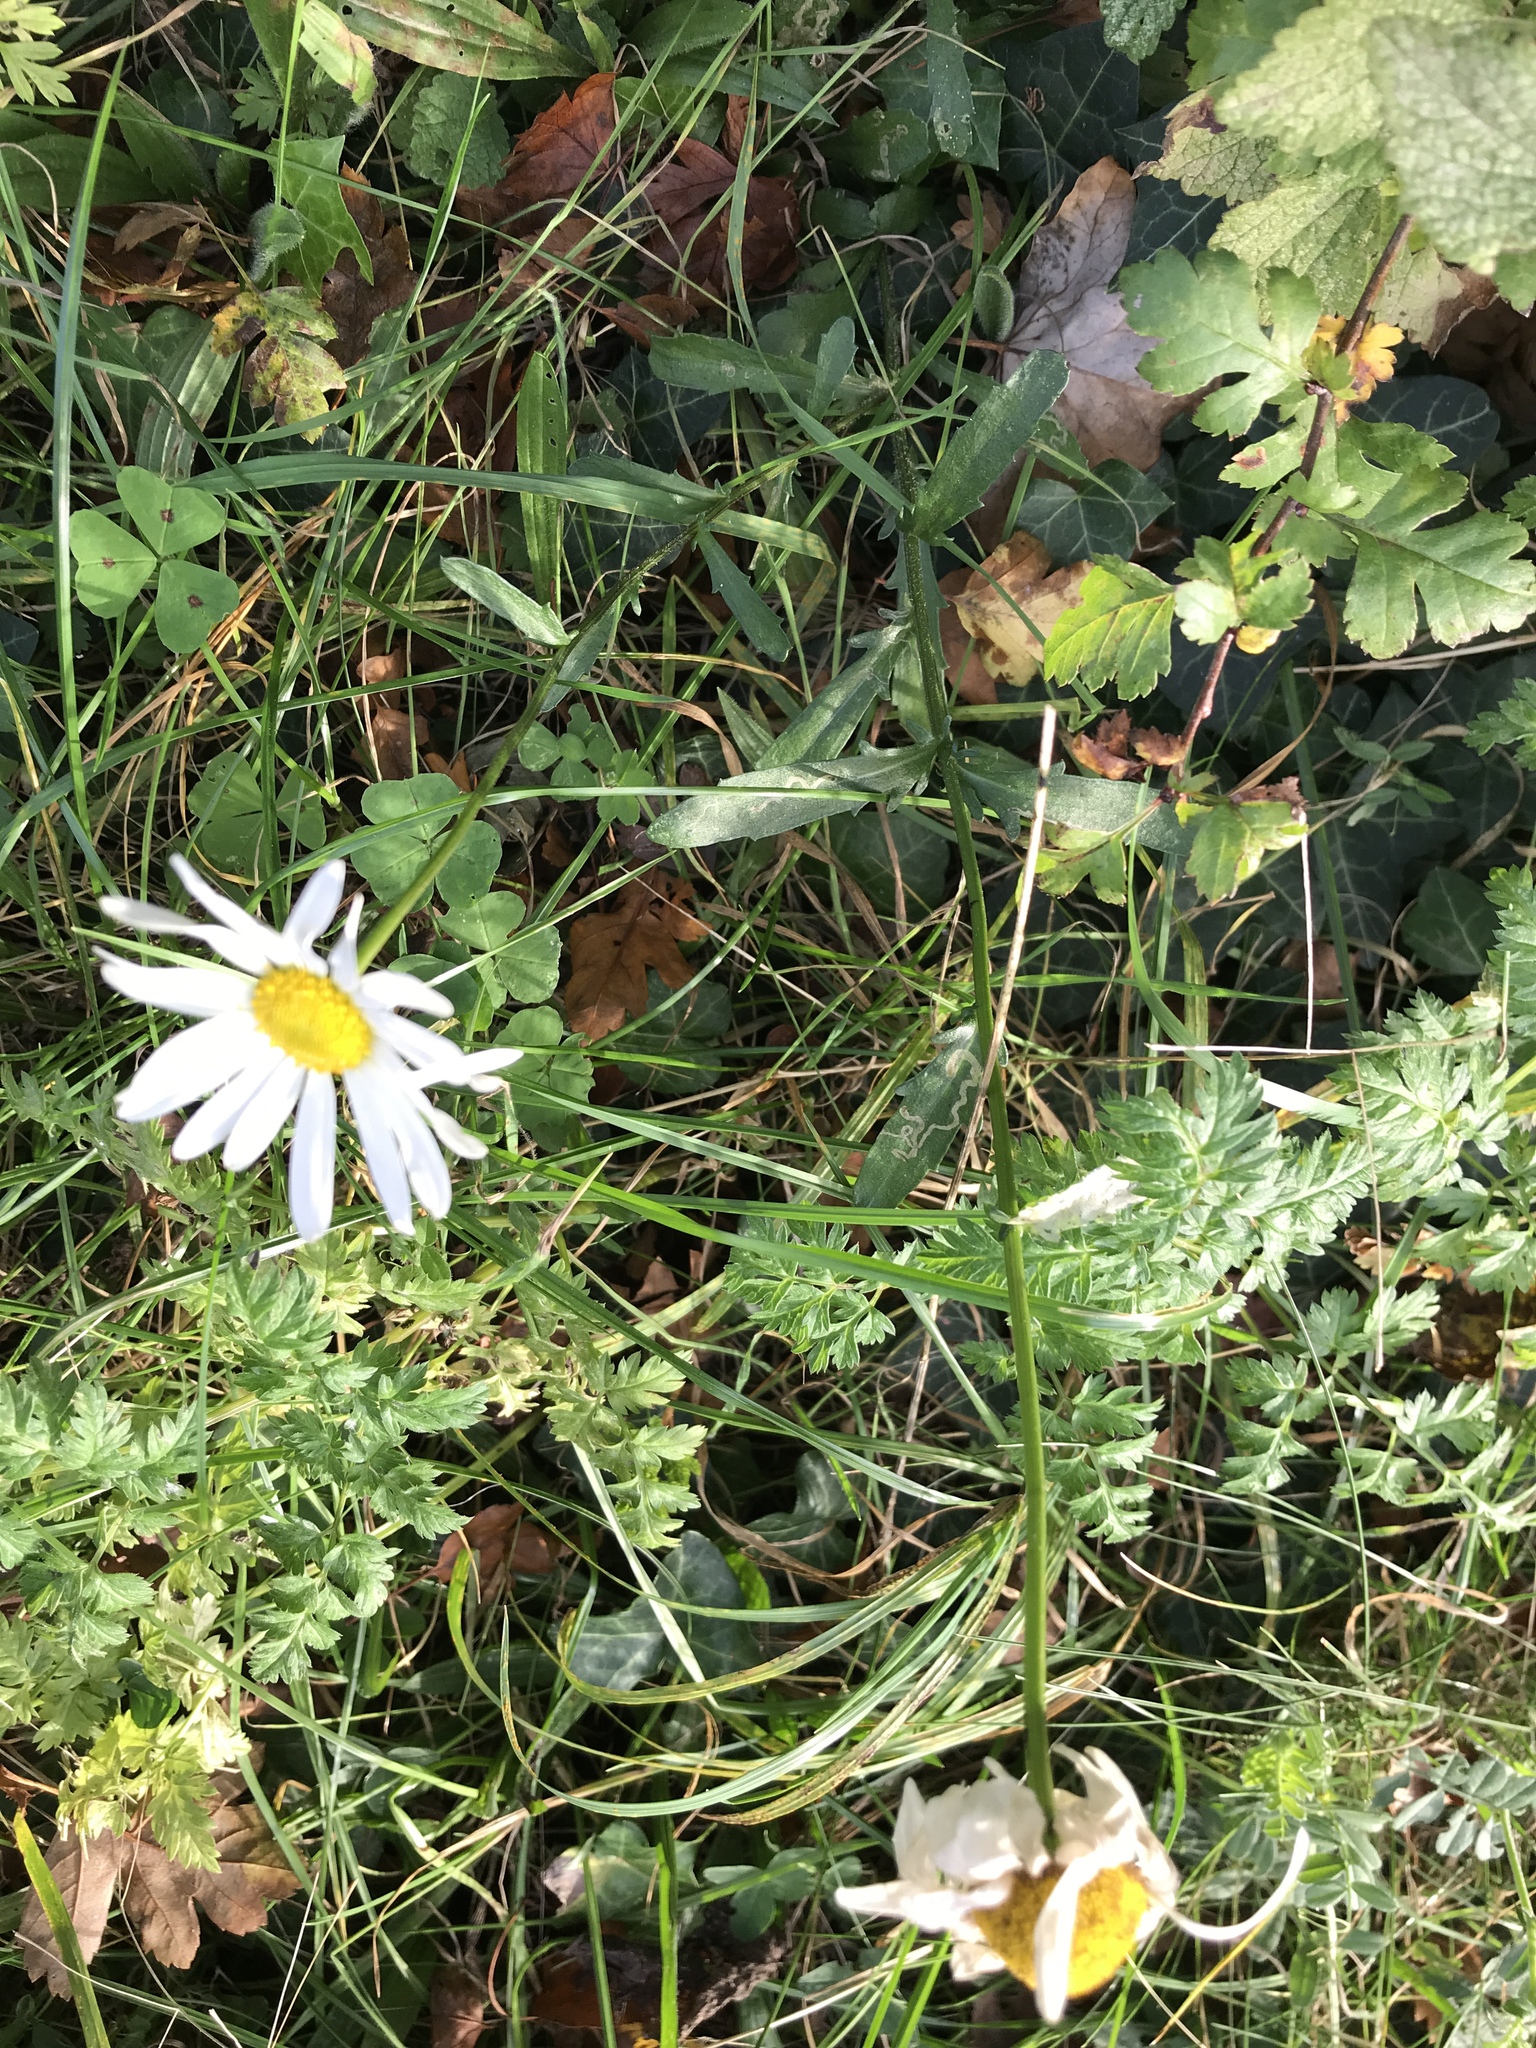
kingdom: Plantae
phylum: Tracheophyta
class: Magnoliopsida
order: Asterales
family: Asteraceae
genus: Leucanthemum
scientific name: Leucanthemum vulgare
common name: Oxeye daisy
